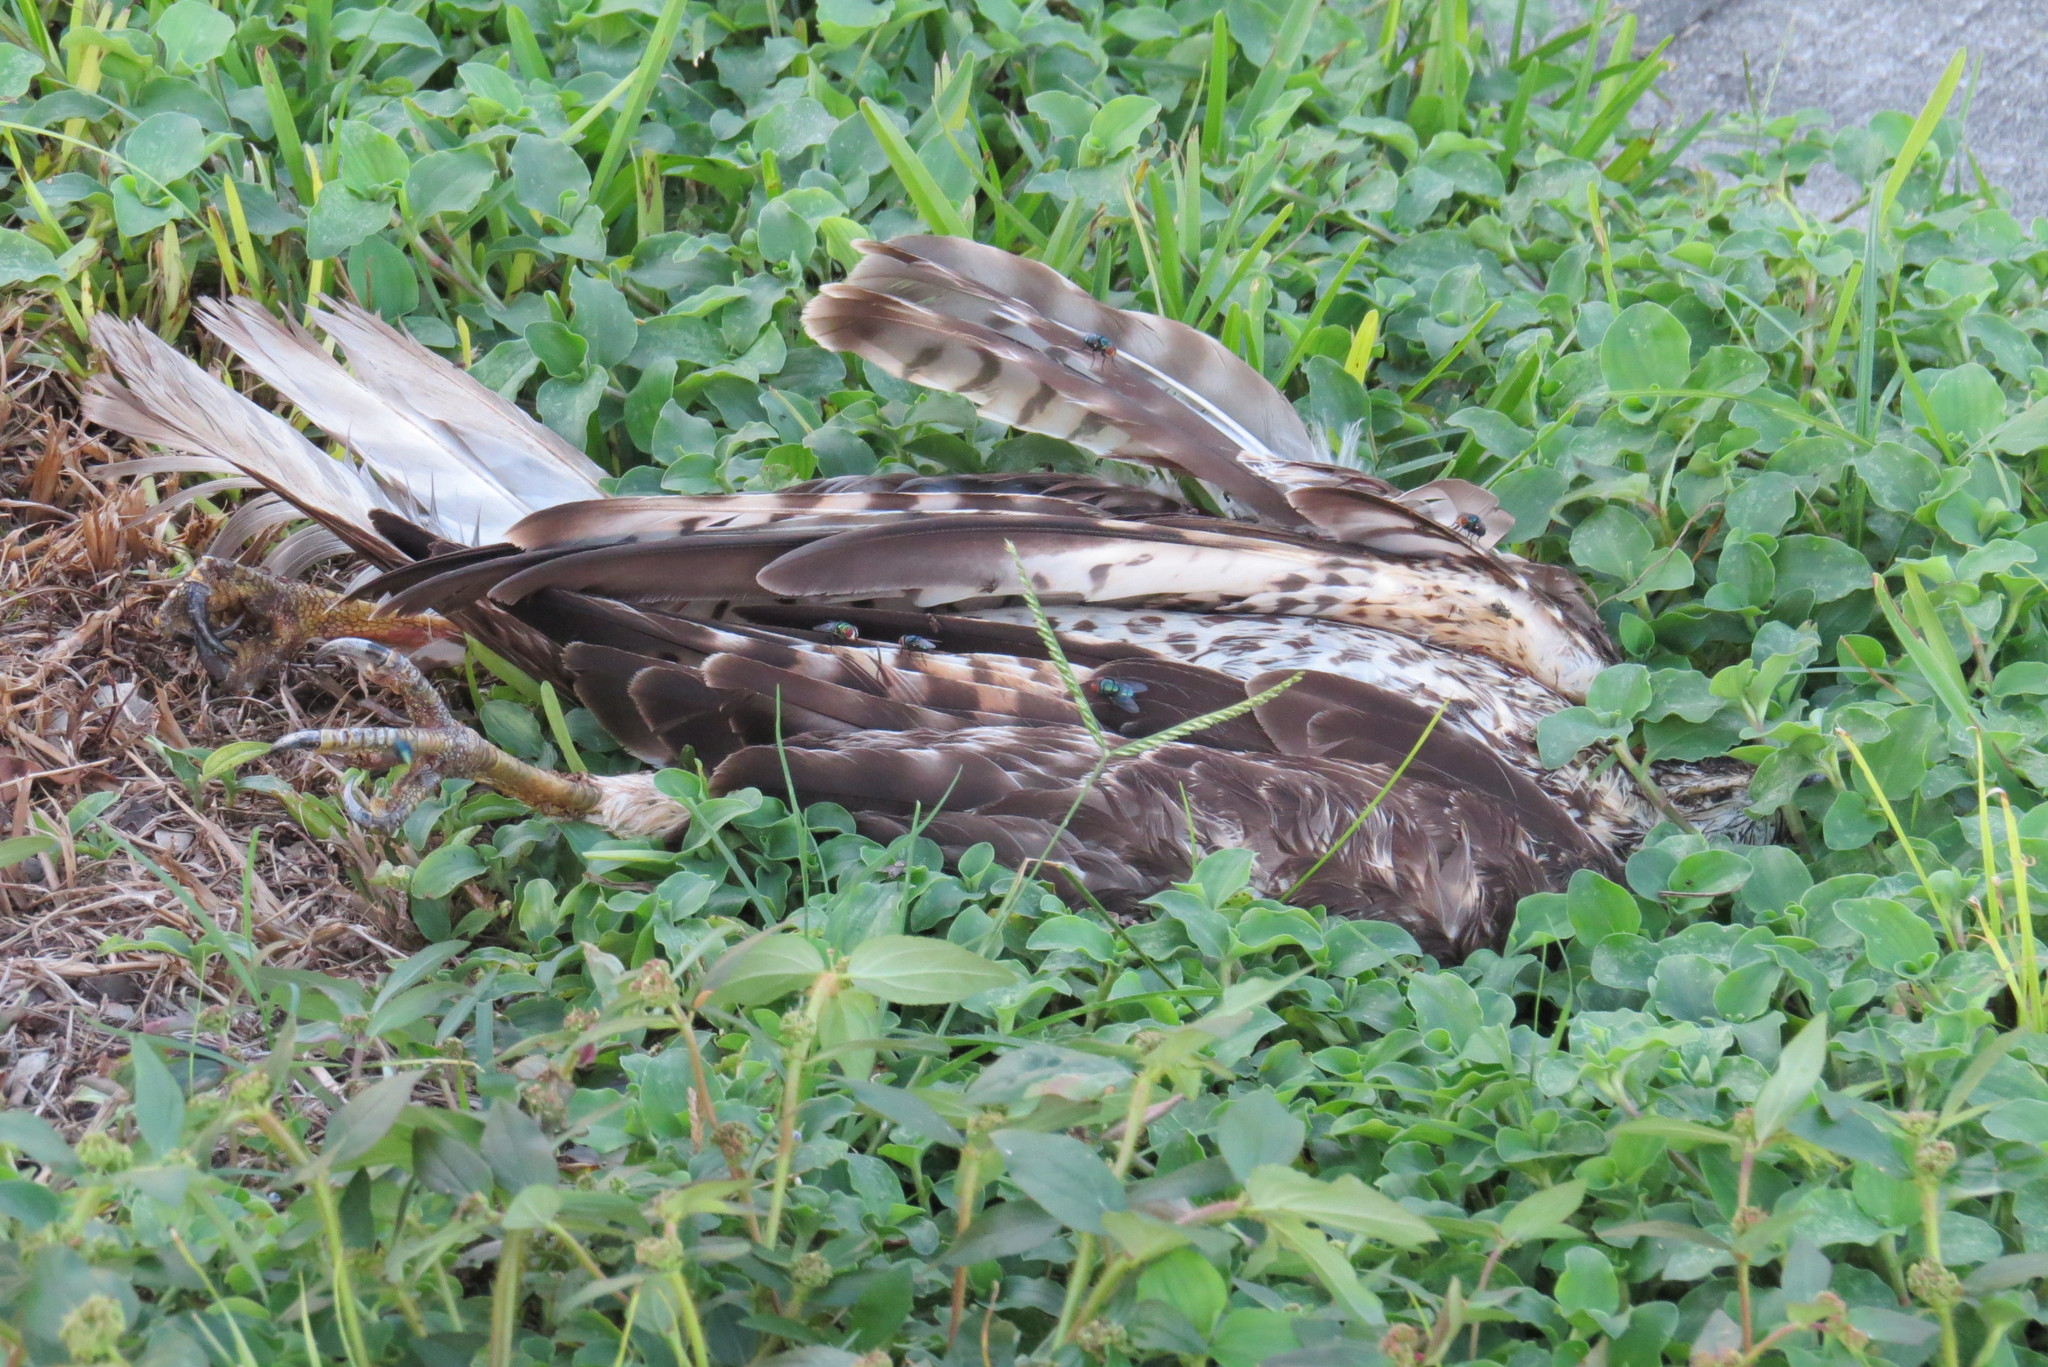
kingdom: Animalia
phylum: Chordata
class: Aves
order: Accipitriformes
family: Accipitridae
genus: Buteo
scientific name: Buteo lineatus
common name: Red-shouldered hawk
